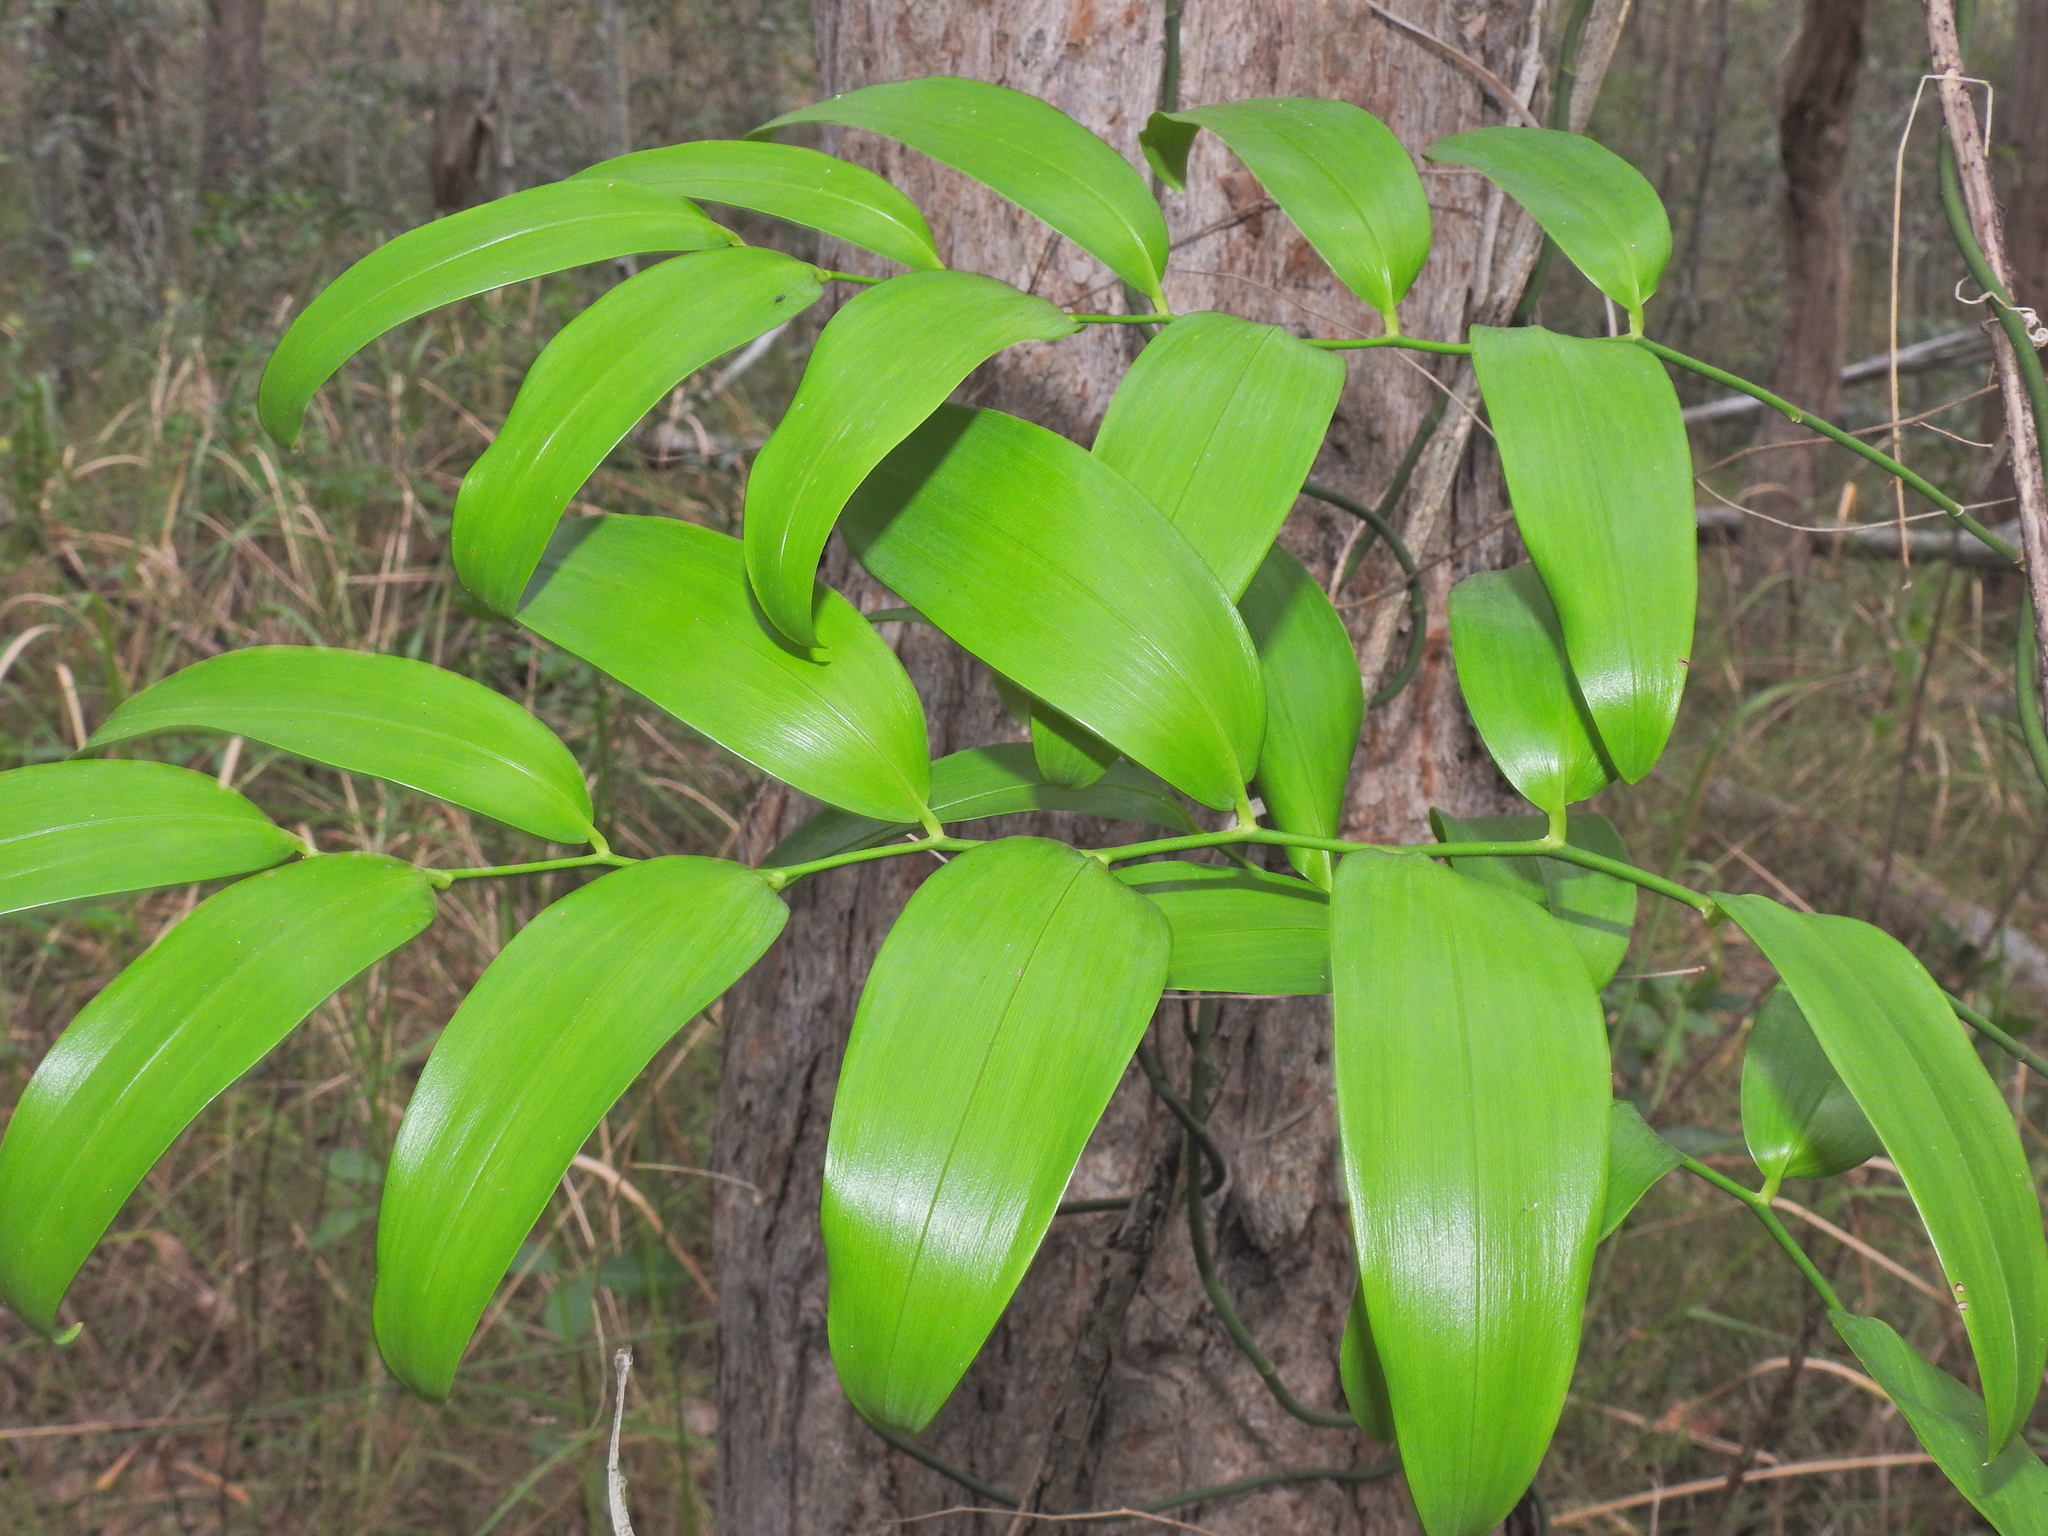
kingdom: Plantae
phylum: Tracheophyta
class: Liliopsida
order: Asparagales
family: Asphodelaceae
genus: Geitonoplesium
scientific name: Geitonoplesium cymosum
